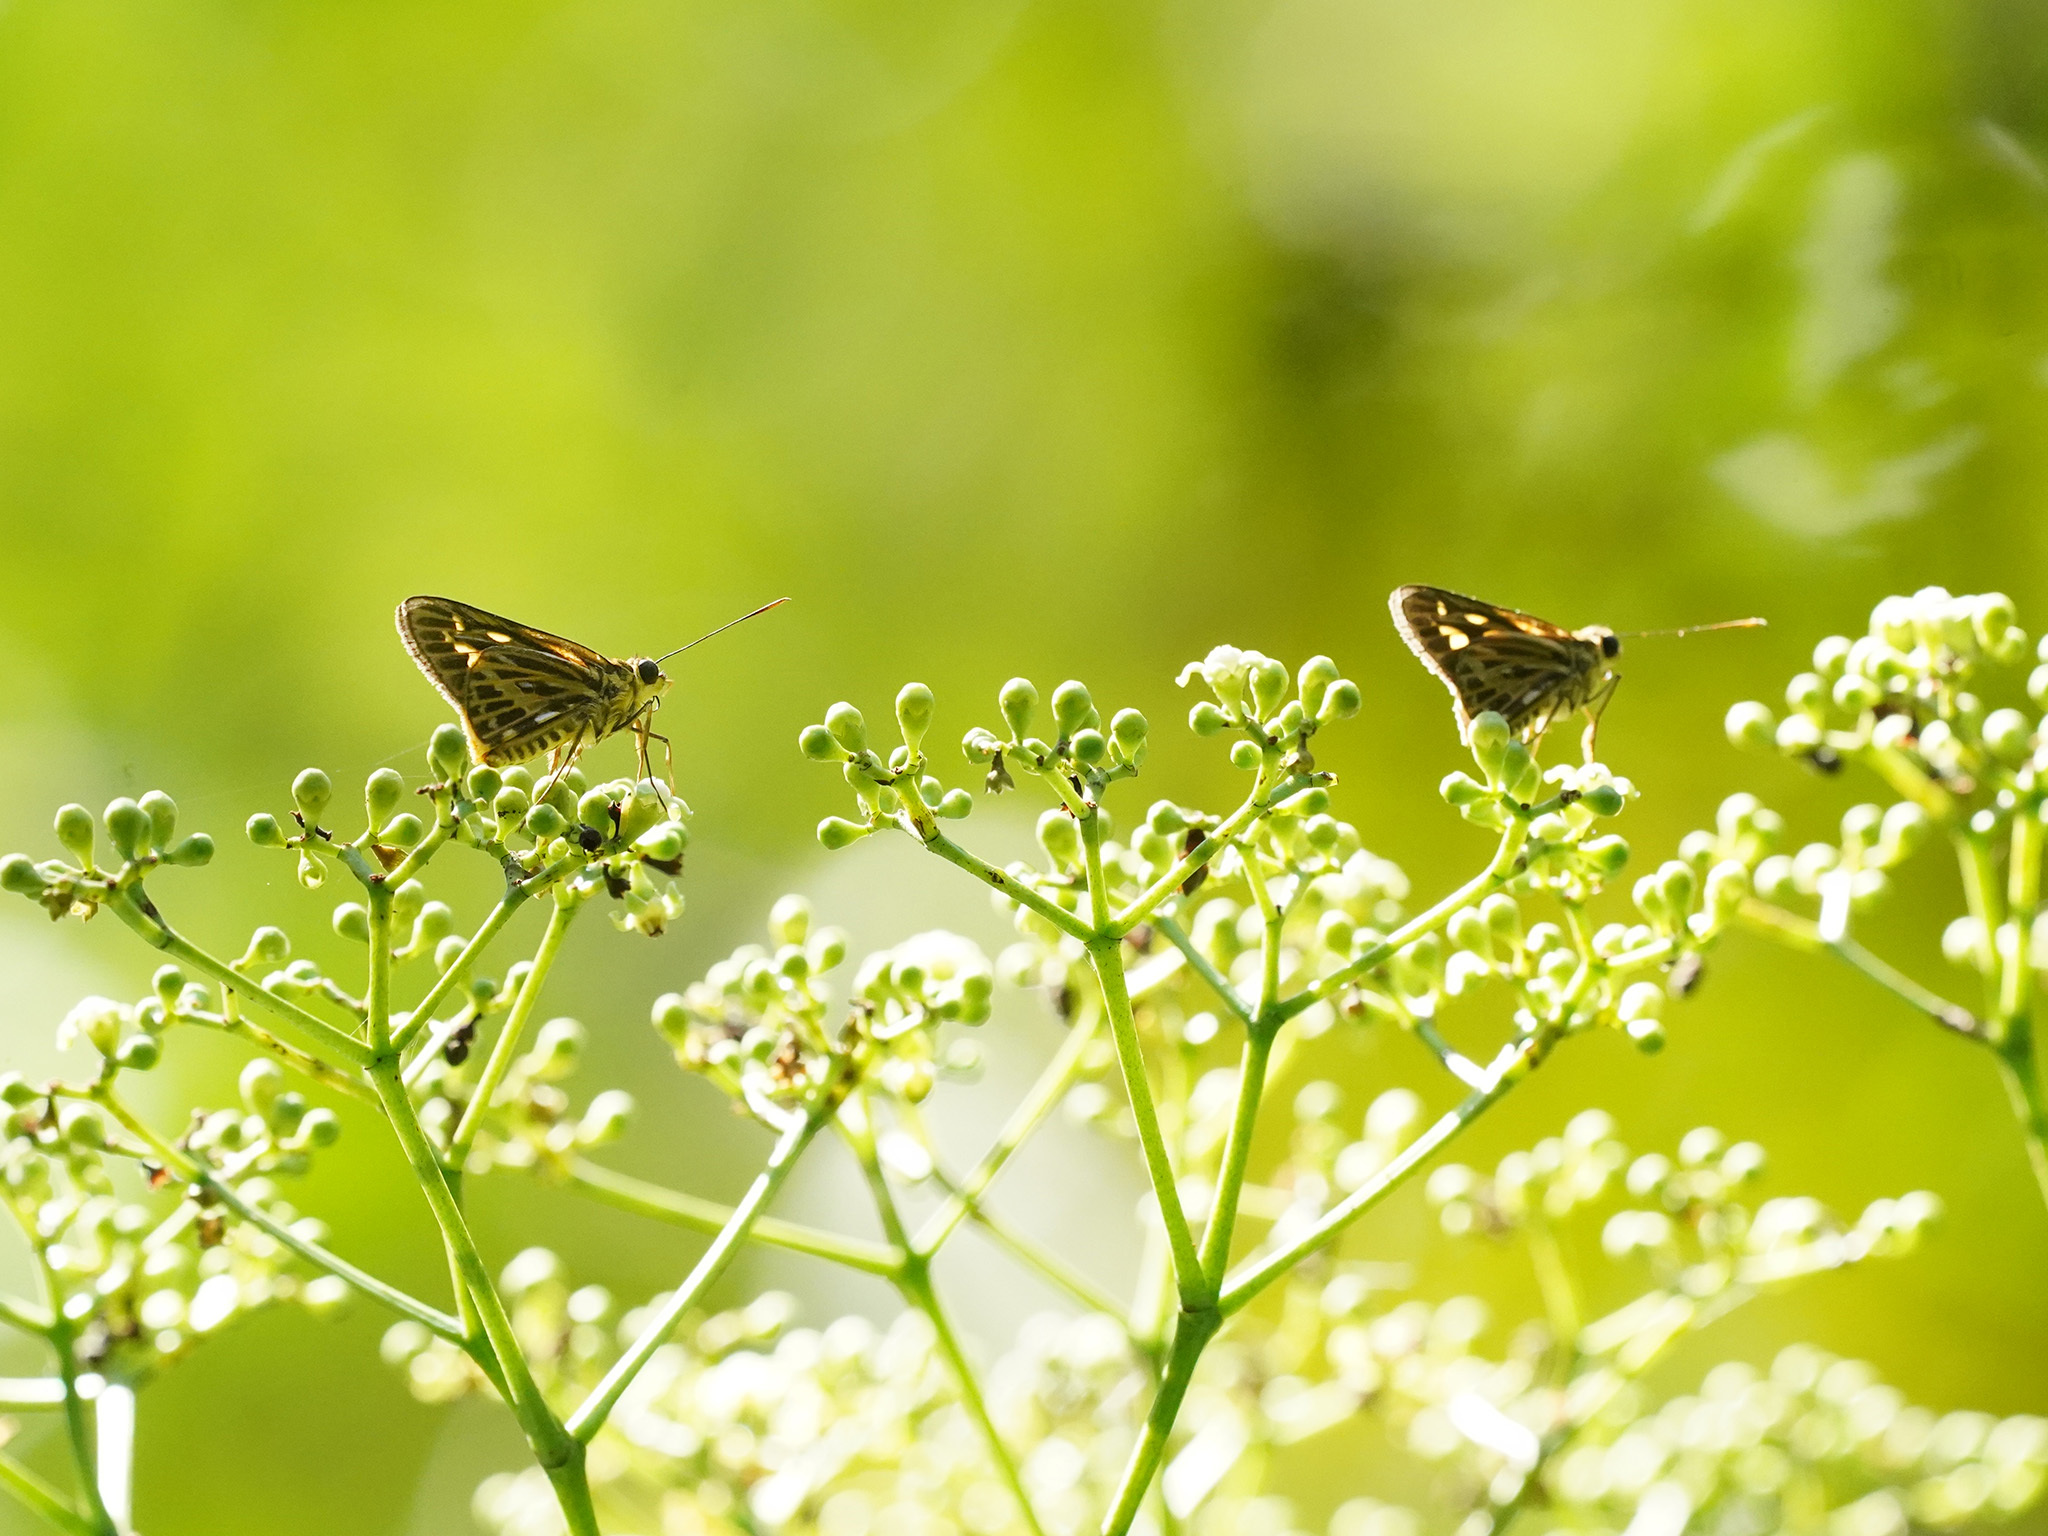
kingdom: Animalia
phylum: Arthropoda
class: Insecta
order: Lepidoptera
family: Hesperiidae
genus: Pyroneura
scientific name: Pyroneura latoia
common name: Yellow vein lancer
